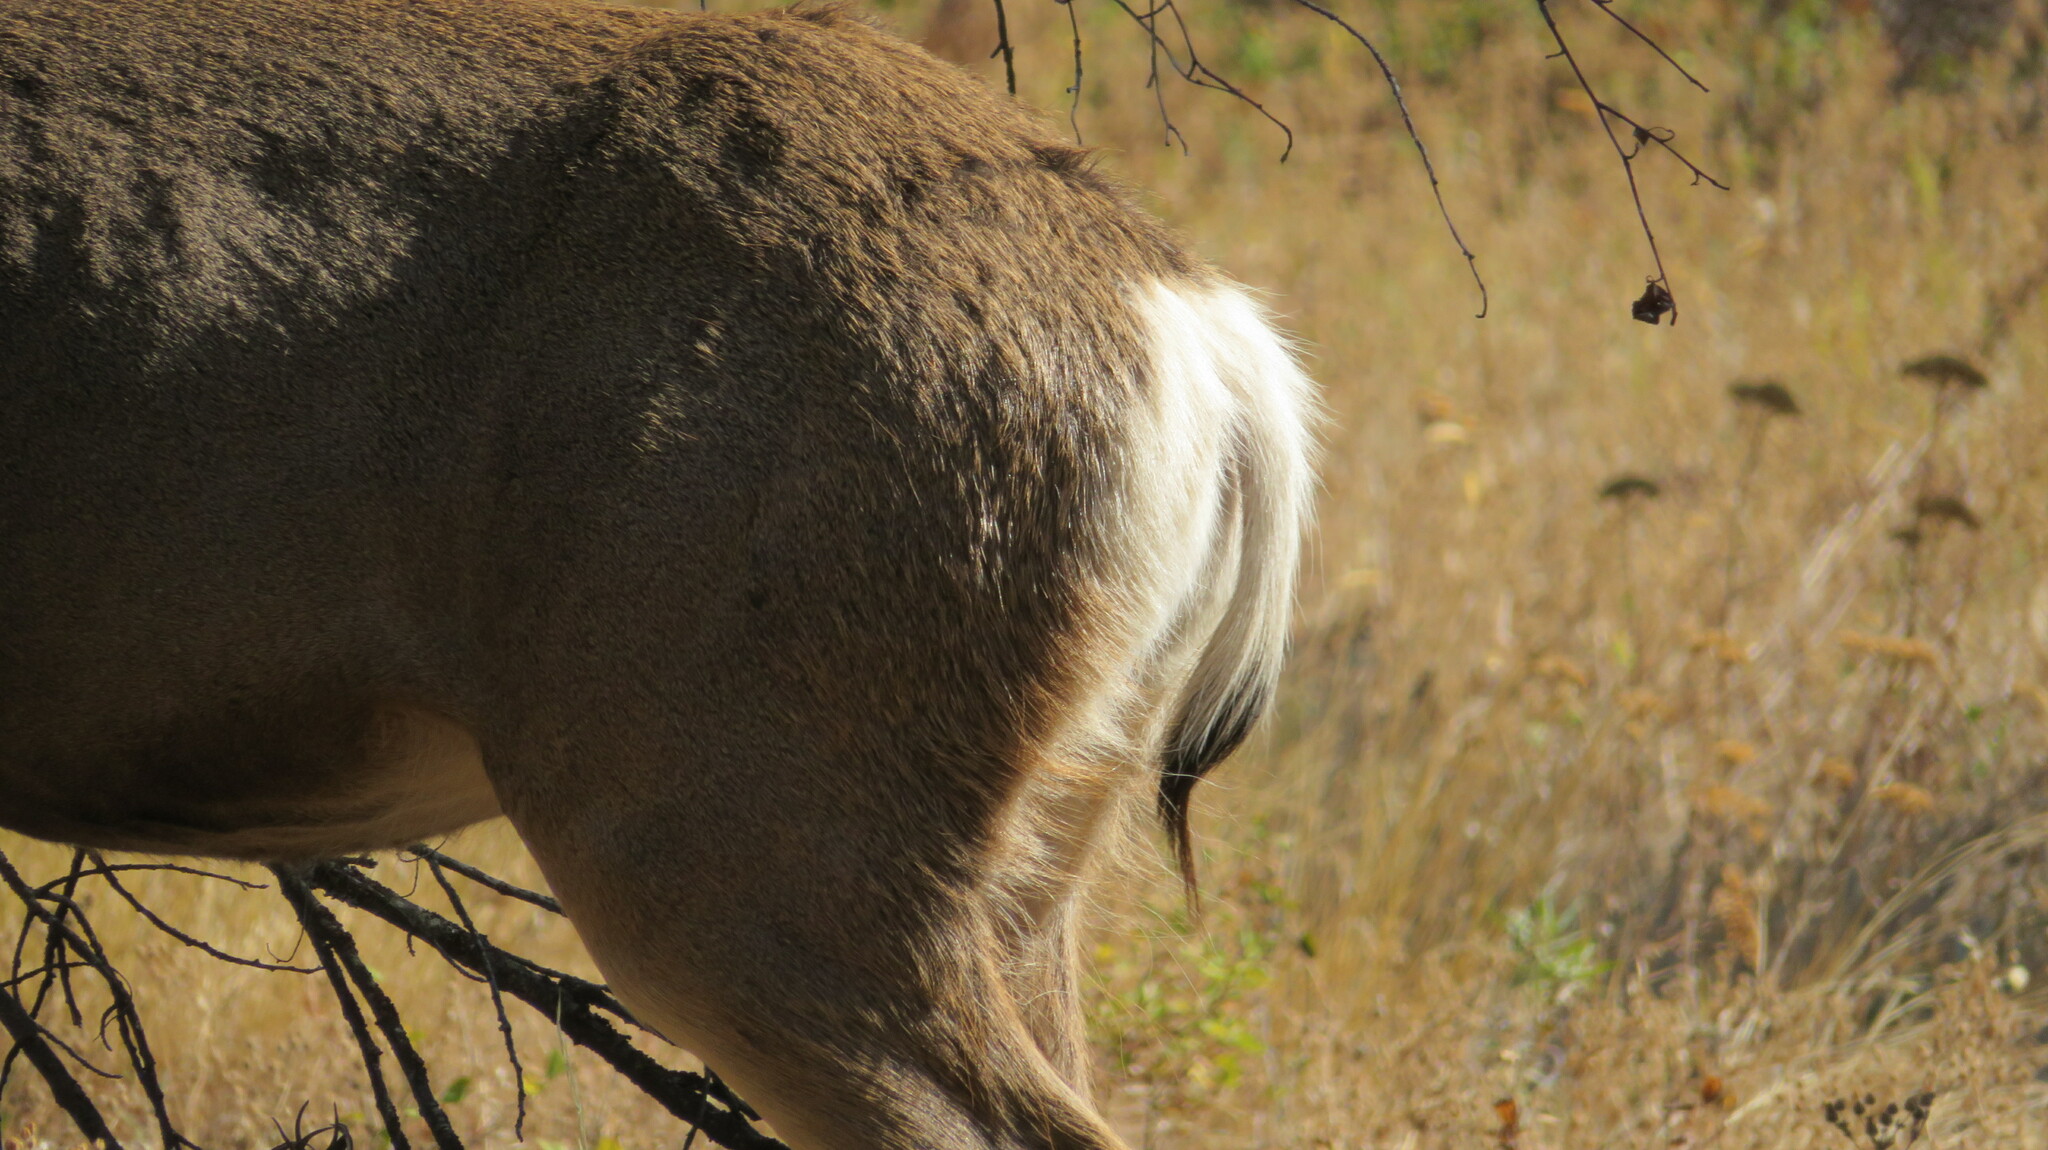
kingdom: Animalia
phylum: Chordata
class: Mammalia
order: Artiodactyla
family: Cervidae
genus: Odocoileus
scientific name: Odocoileus hemionus
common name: Mule deer
